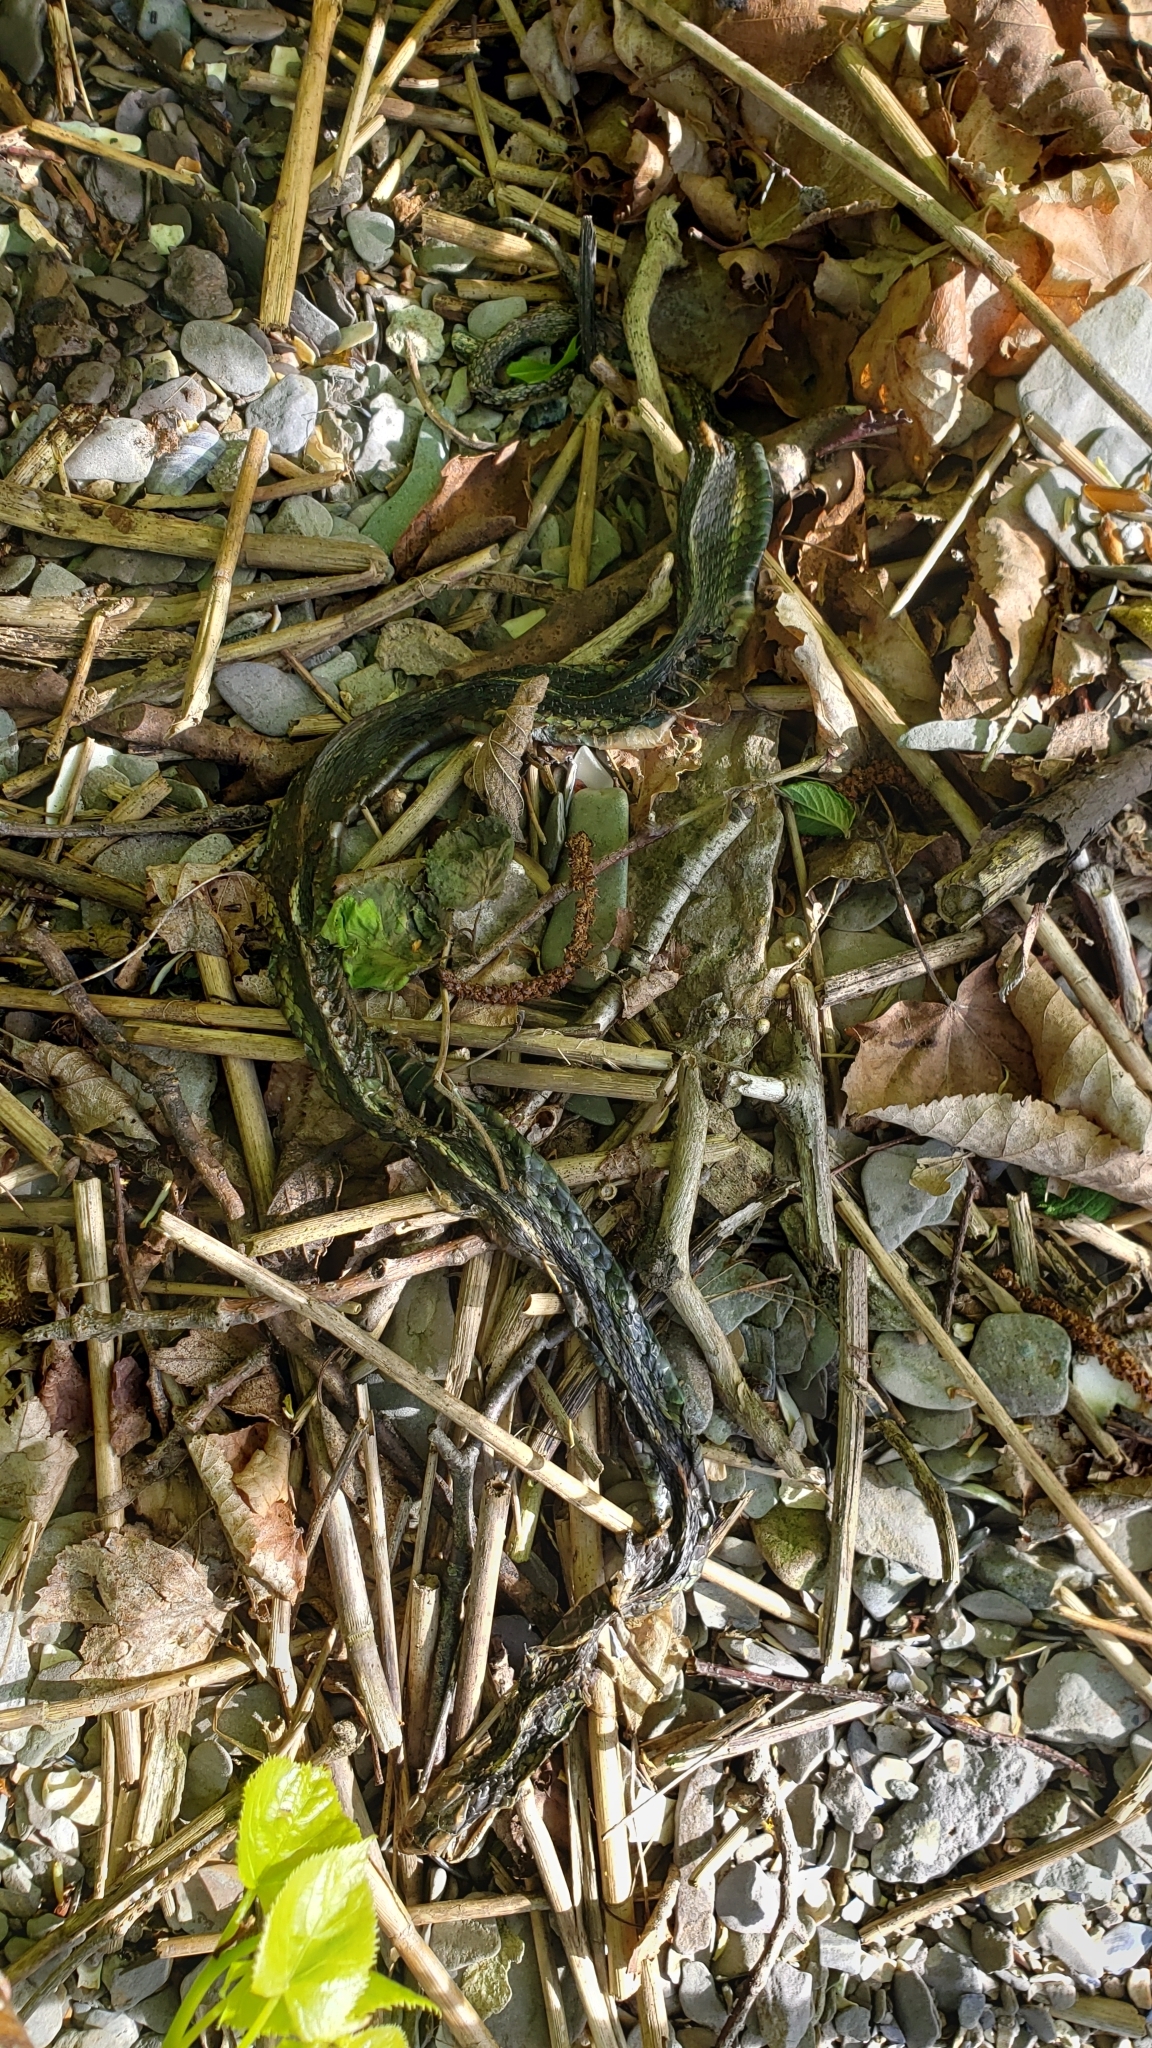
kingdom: Animalia
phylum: Chordata
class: Squamata
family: Colubridae
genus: Thamnophis
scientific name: Thamnophis sirtalis
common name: Common garter snake
